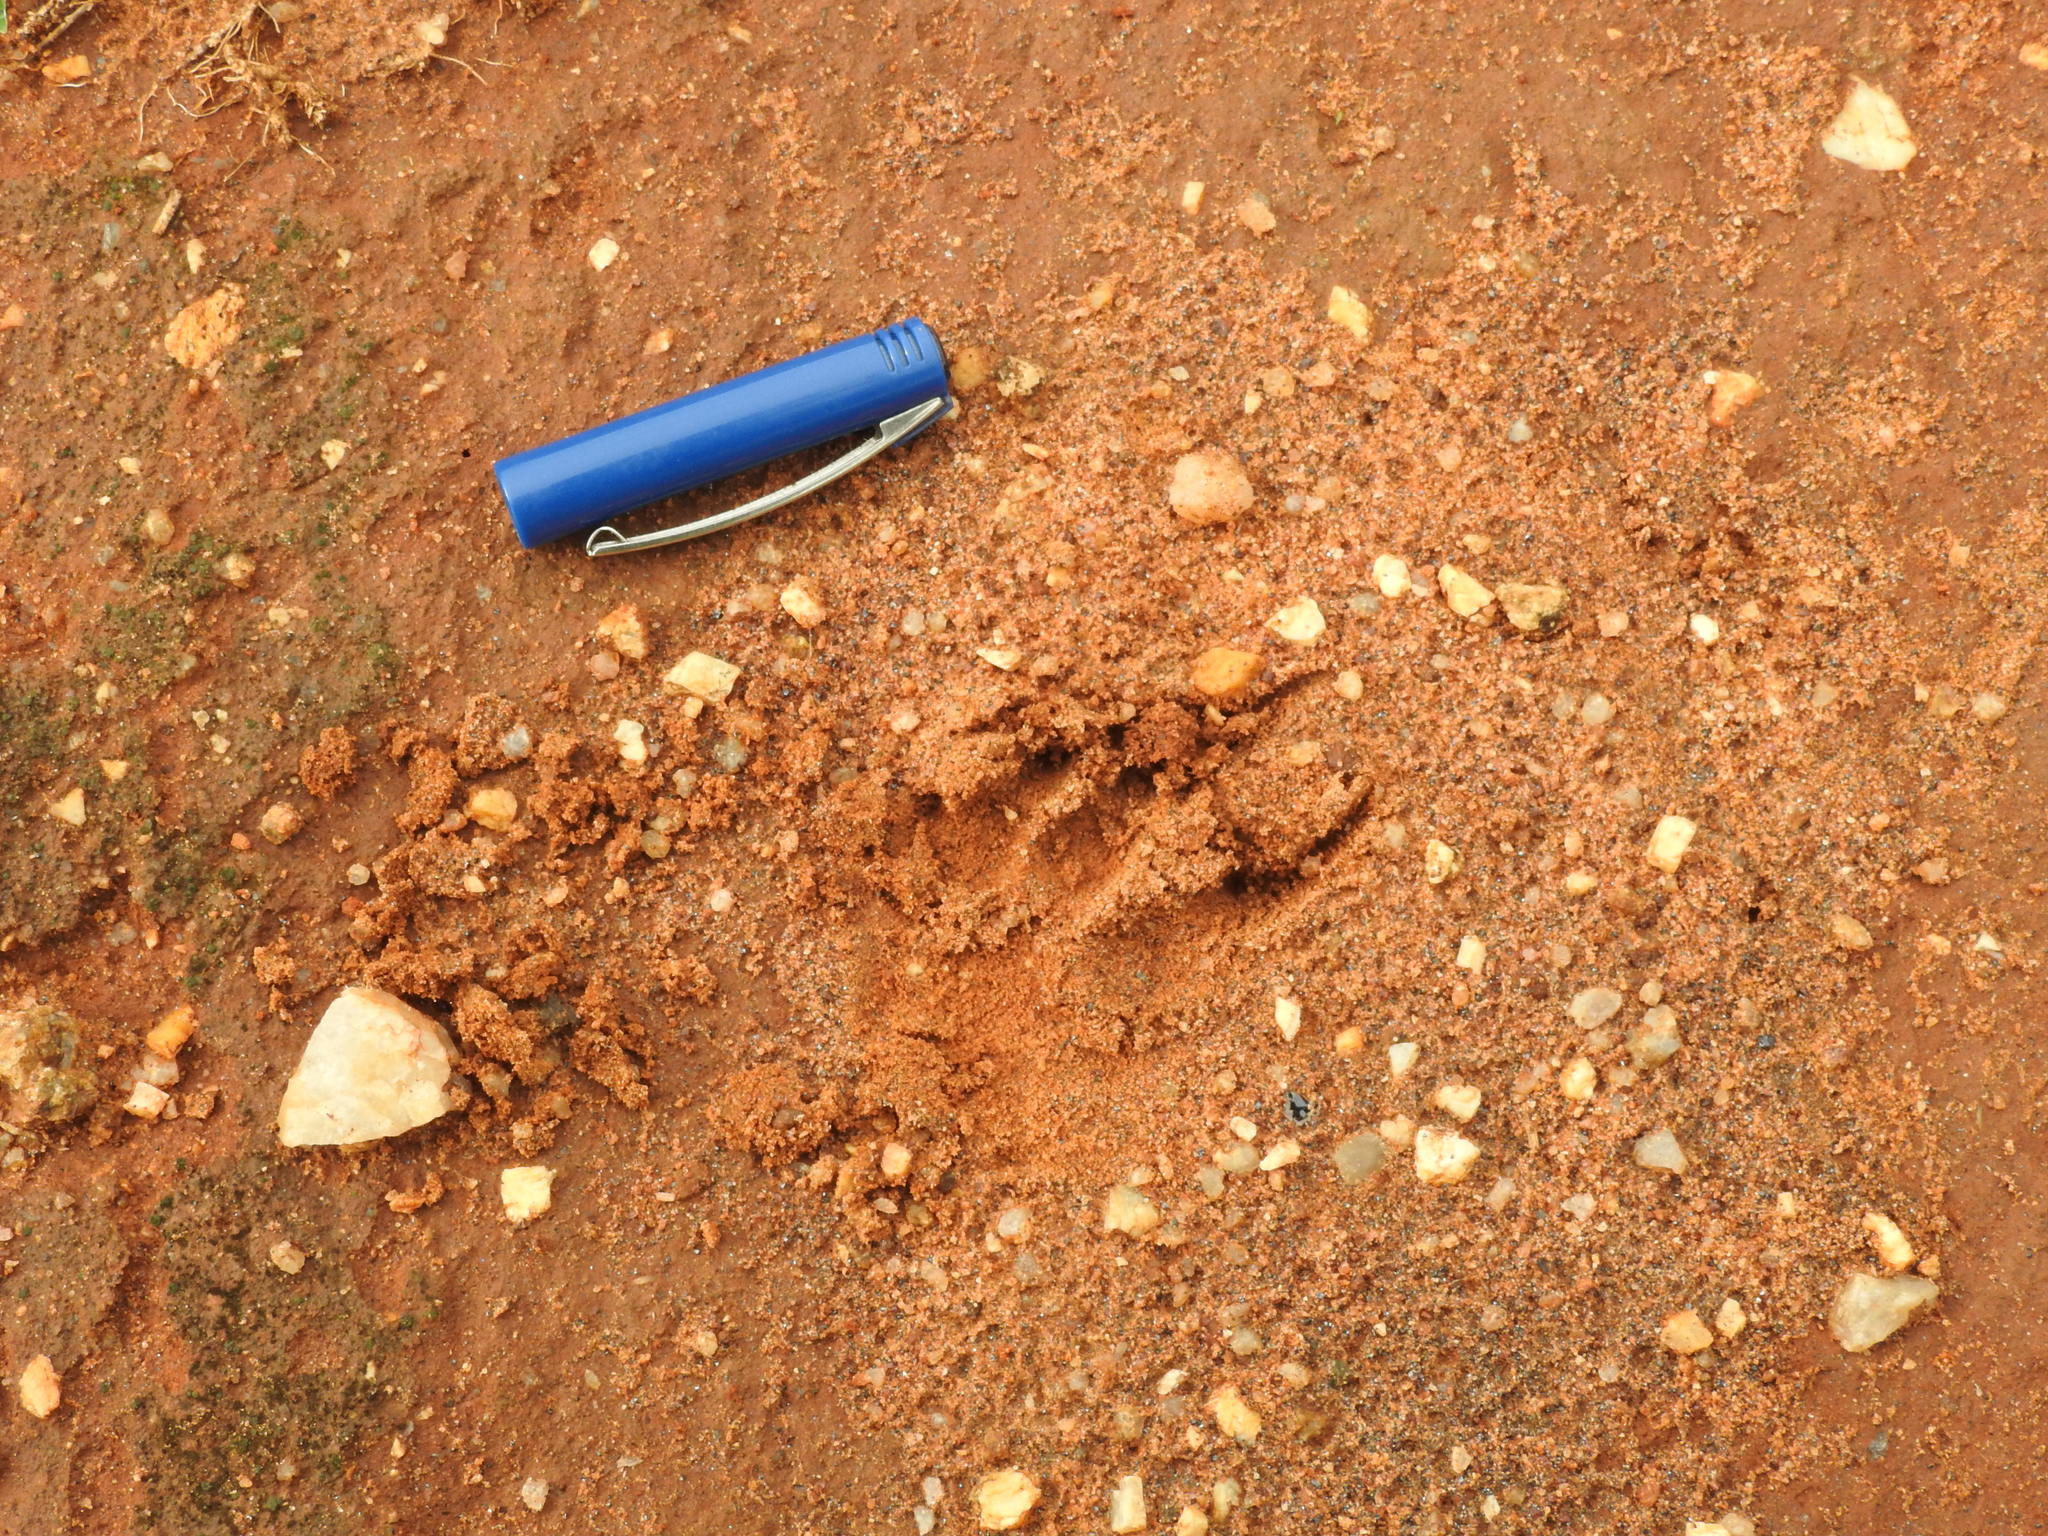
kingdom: Animalia
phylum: Chordata
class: Mammalia
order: Rodentia
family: Hystricidae
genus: Hystrix
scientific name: Hystrix indica
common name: Indian crested porcupine
